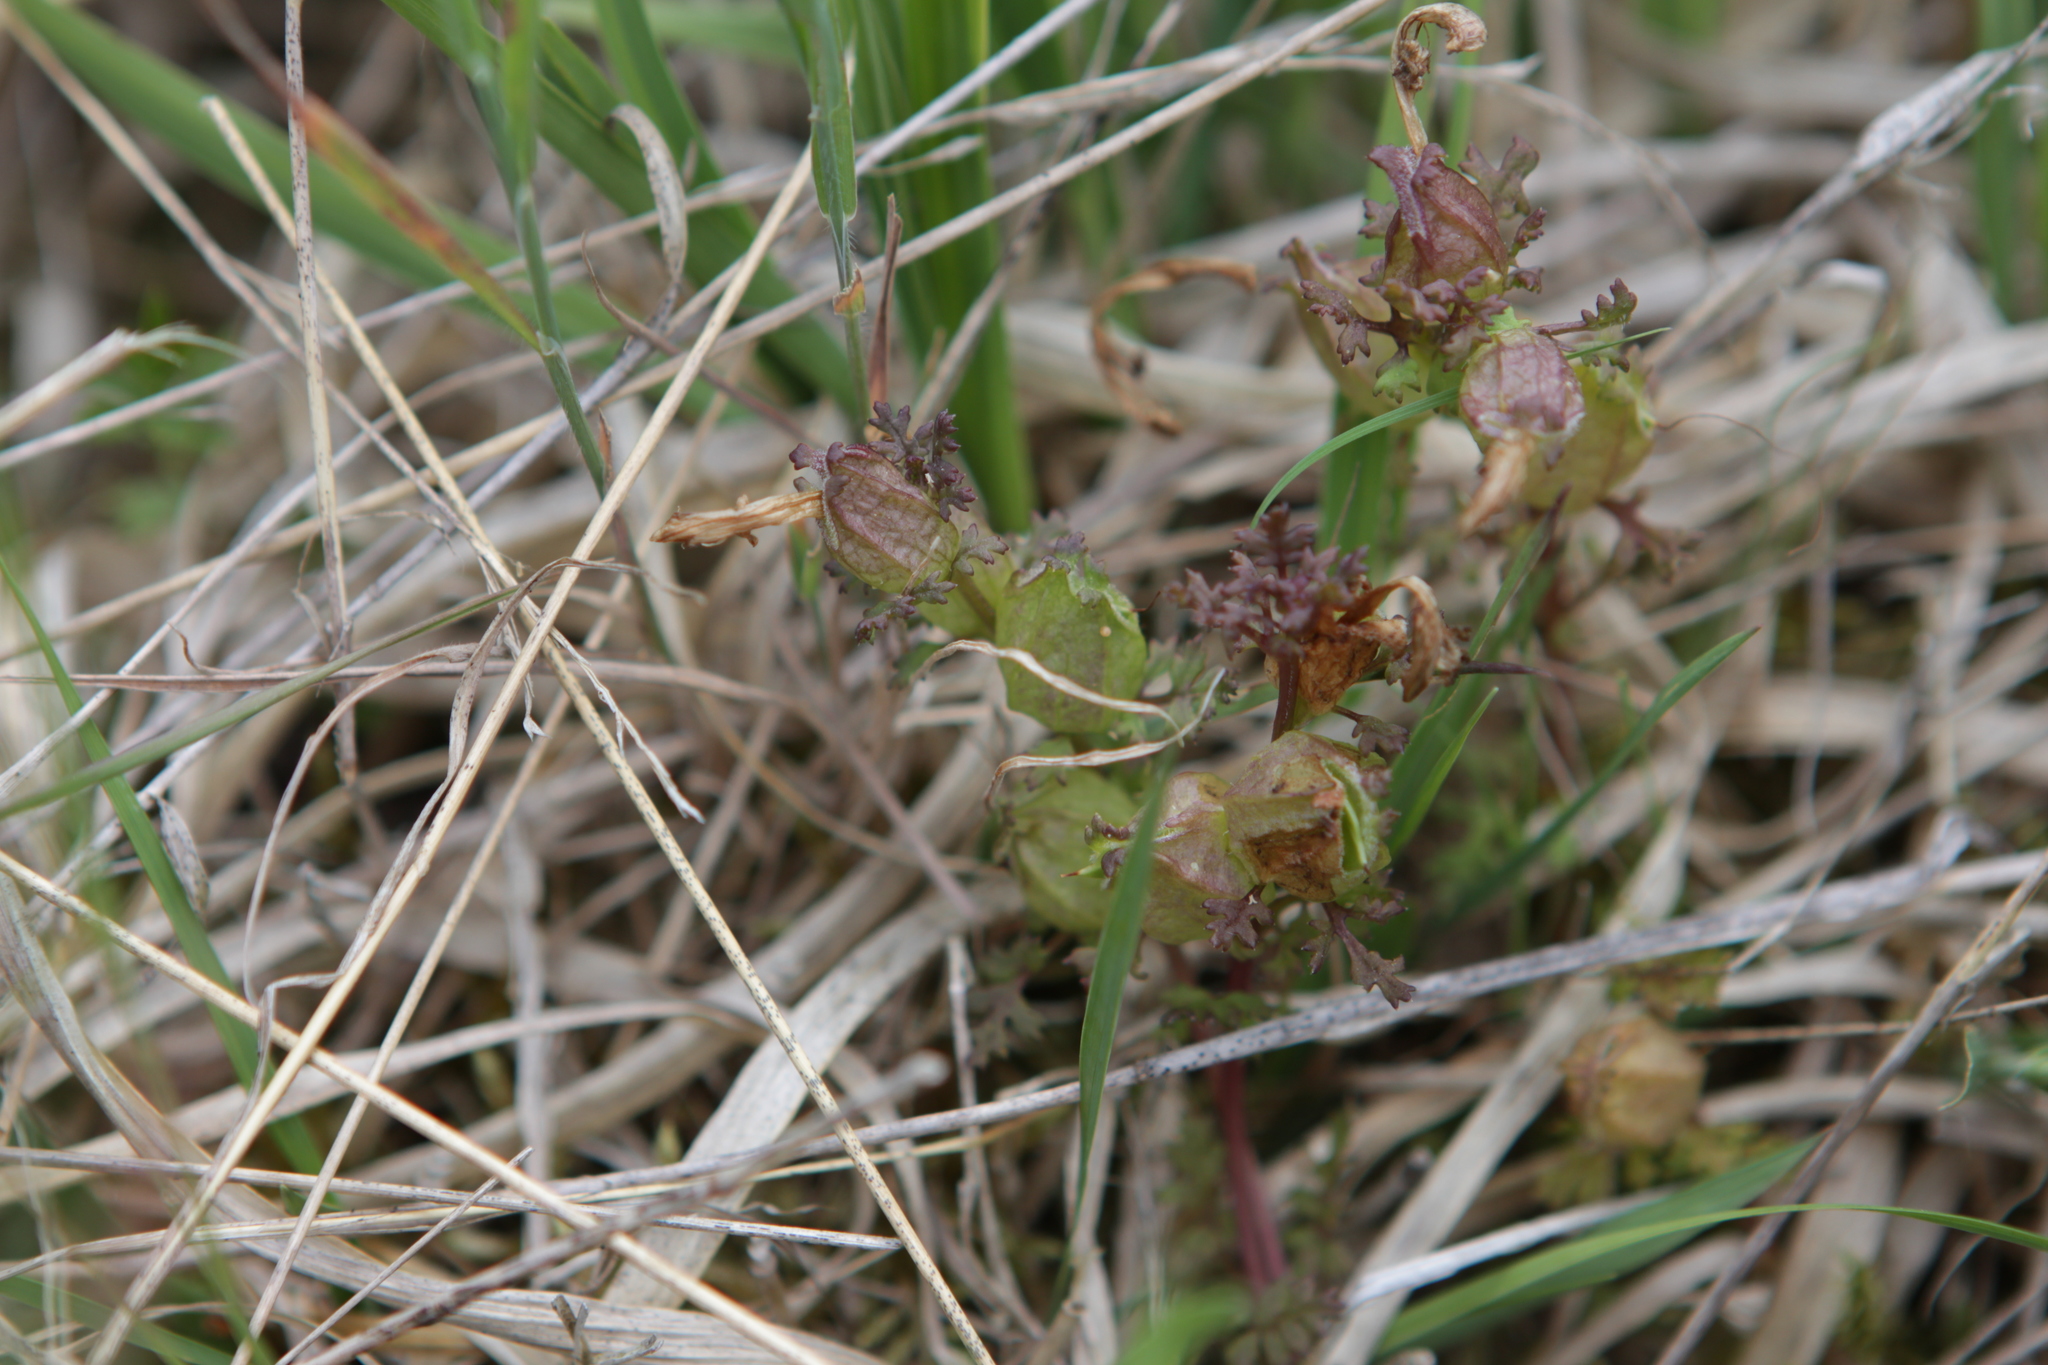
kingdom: Plantae
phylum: Tracheophyta
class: Magnoliopsida
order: Lamiales
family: Orobanchaceae
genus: Pedicularis
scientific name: Pedicularis sylvatica
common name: Lousewort
